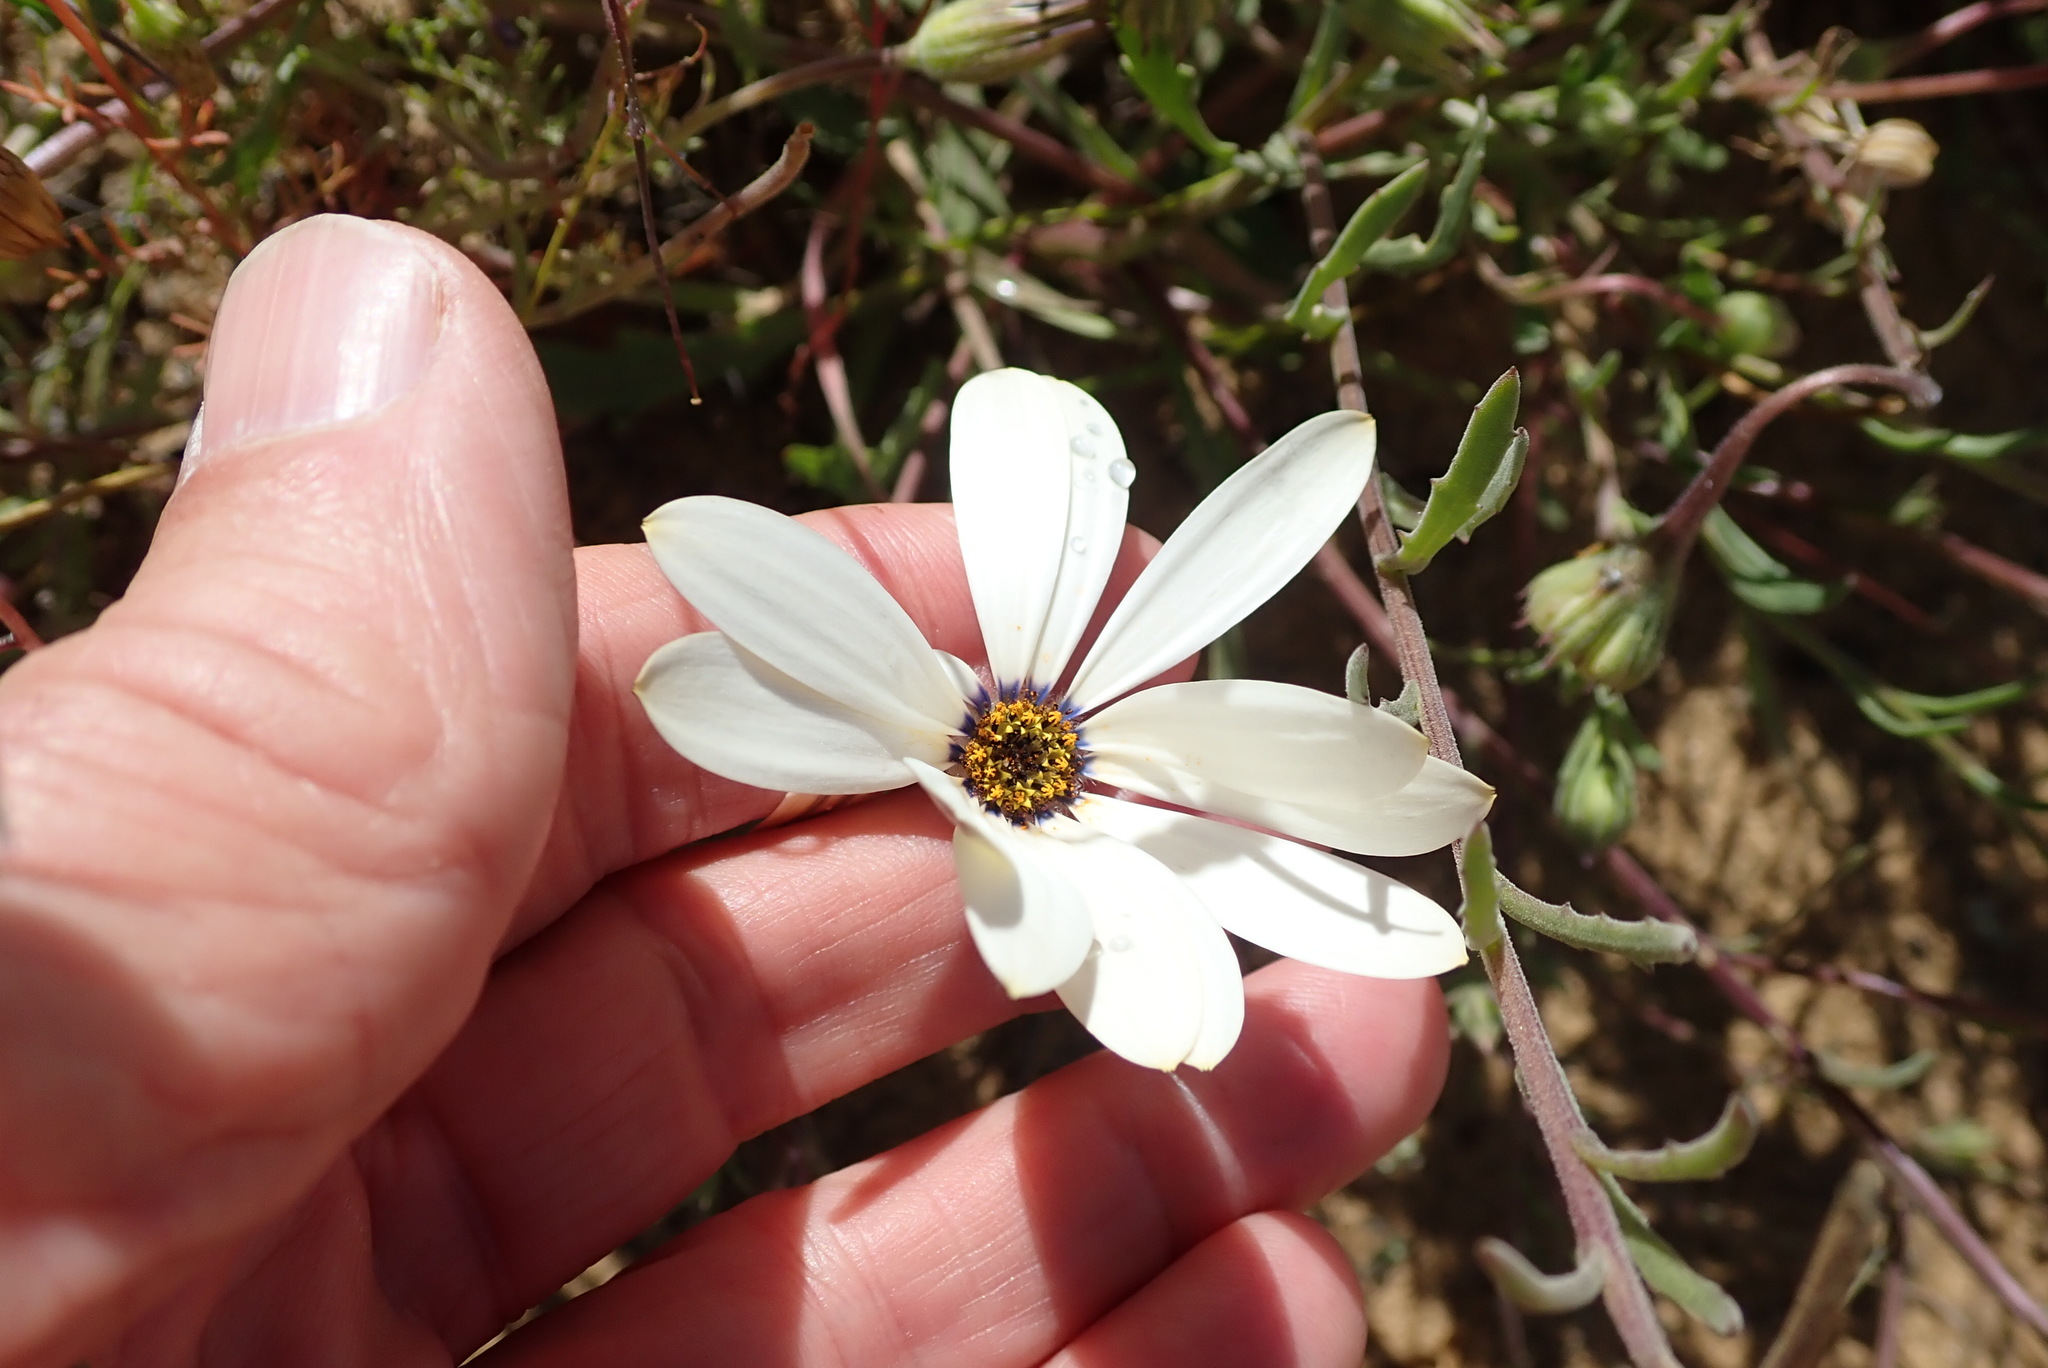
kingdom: Plantae
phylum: Tracheophyta
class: Magnoliopsida
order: Asterales
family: Asteraceae
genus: Dimorphotheca
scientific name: Dimorphotheca pluvialis
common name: Weather prophet
